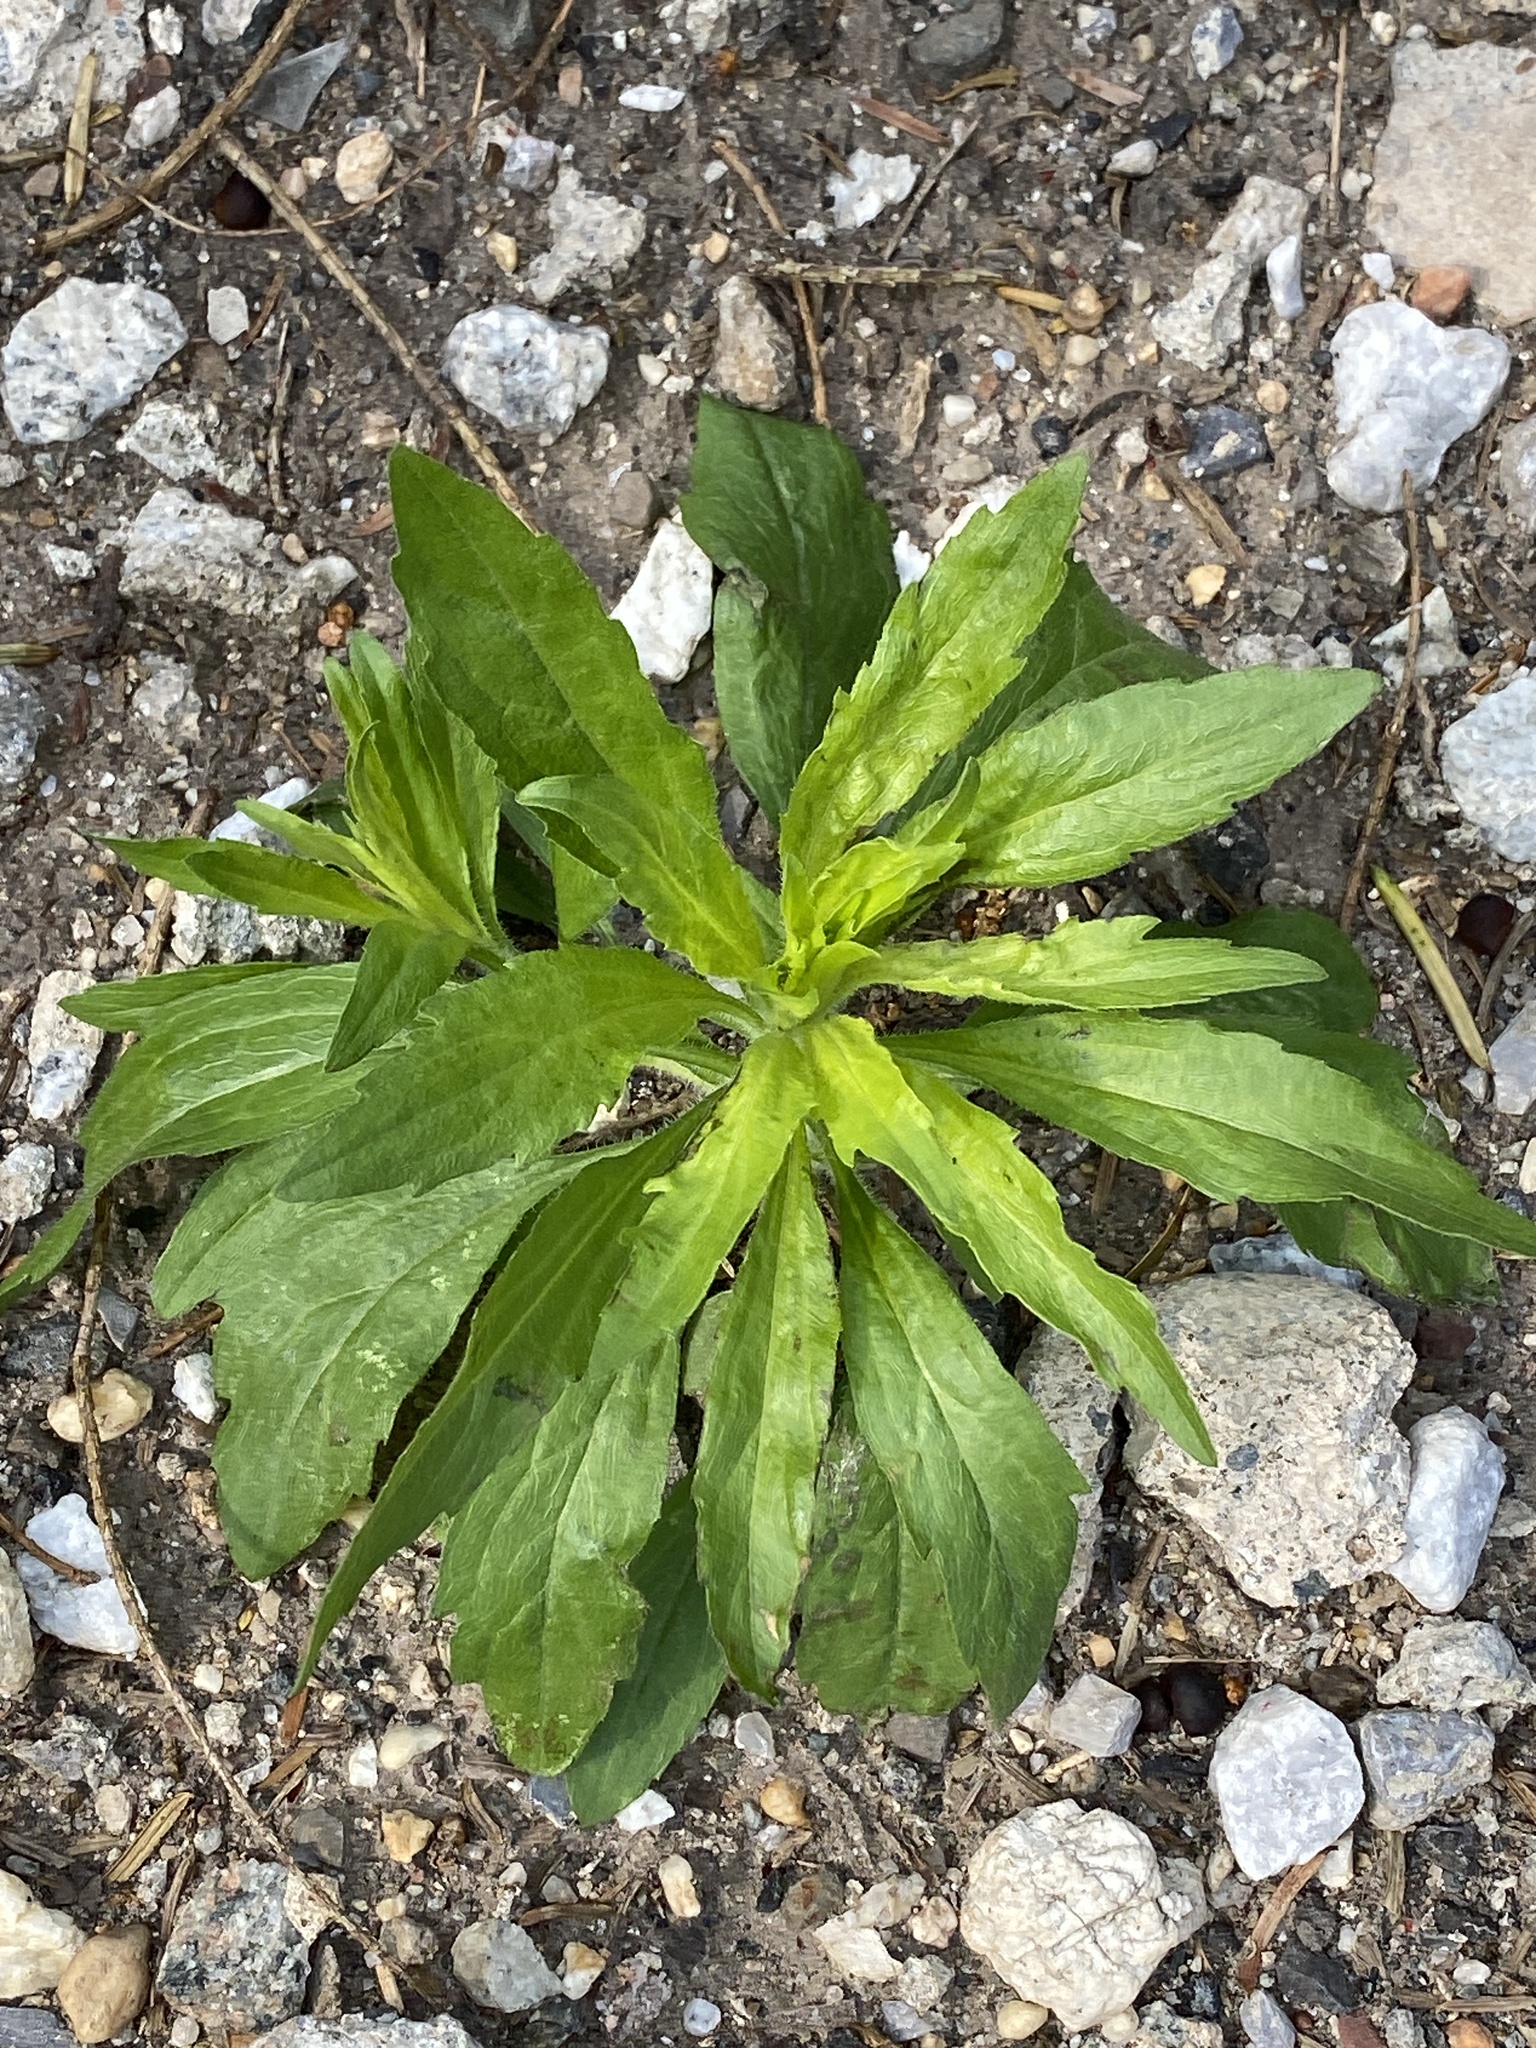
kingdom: Plantae
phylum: Tracheophyta
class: Magnoliopsida
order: Asterales
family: Asteraceae
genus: Erigeron
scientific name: Erigeron canadensis
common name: Canadian fleabane
